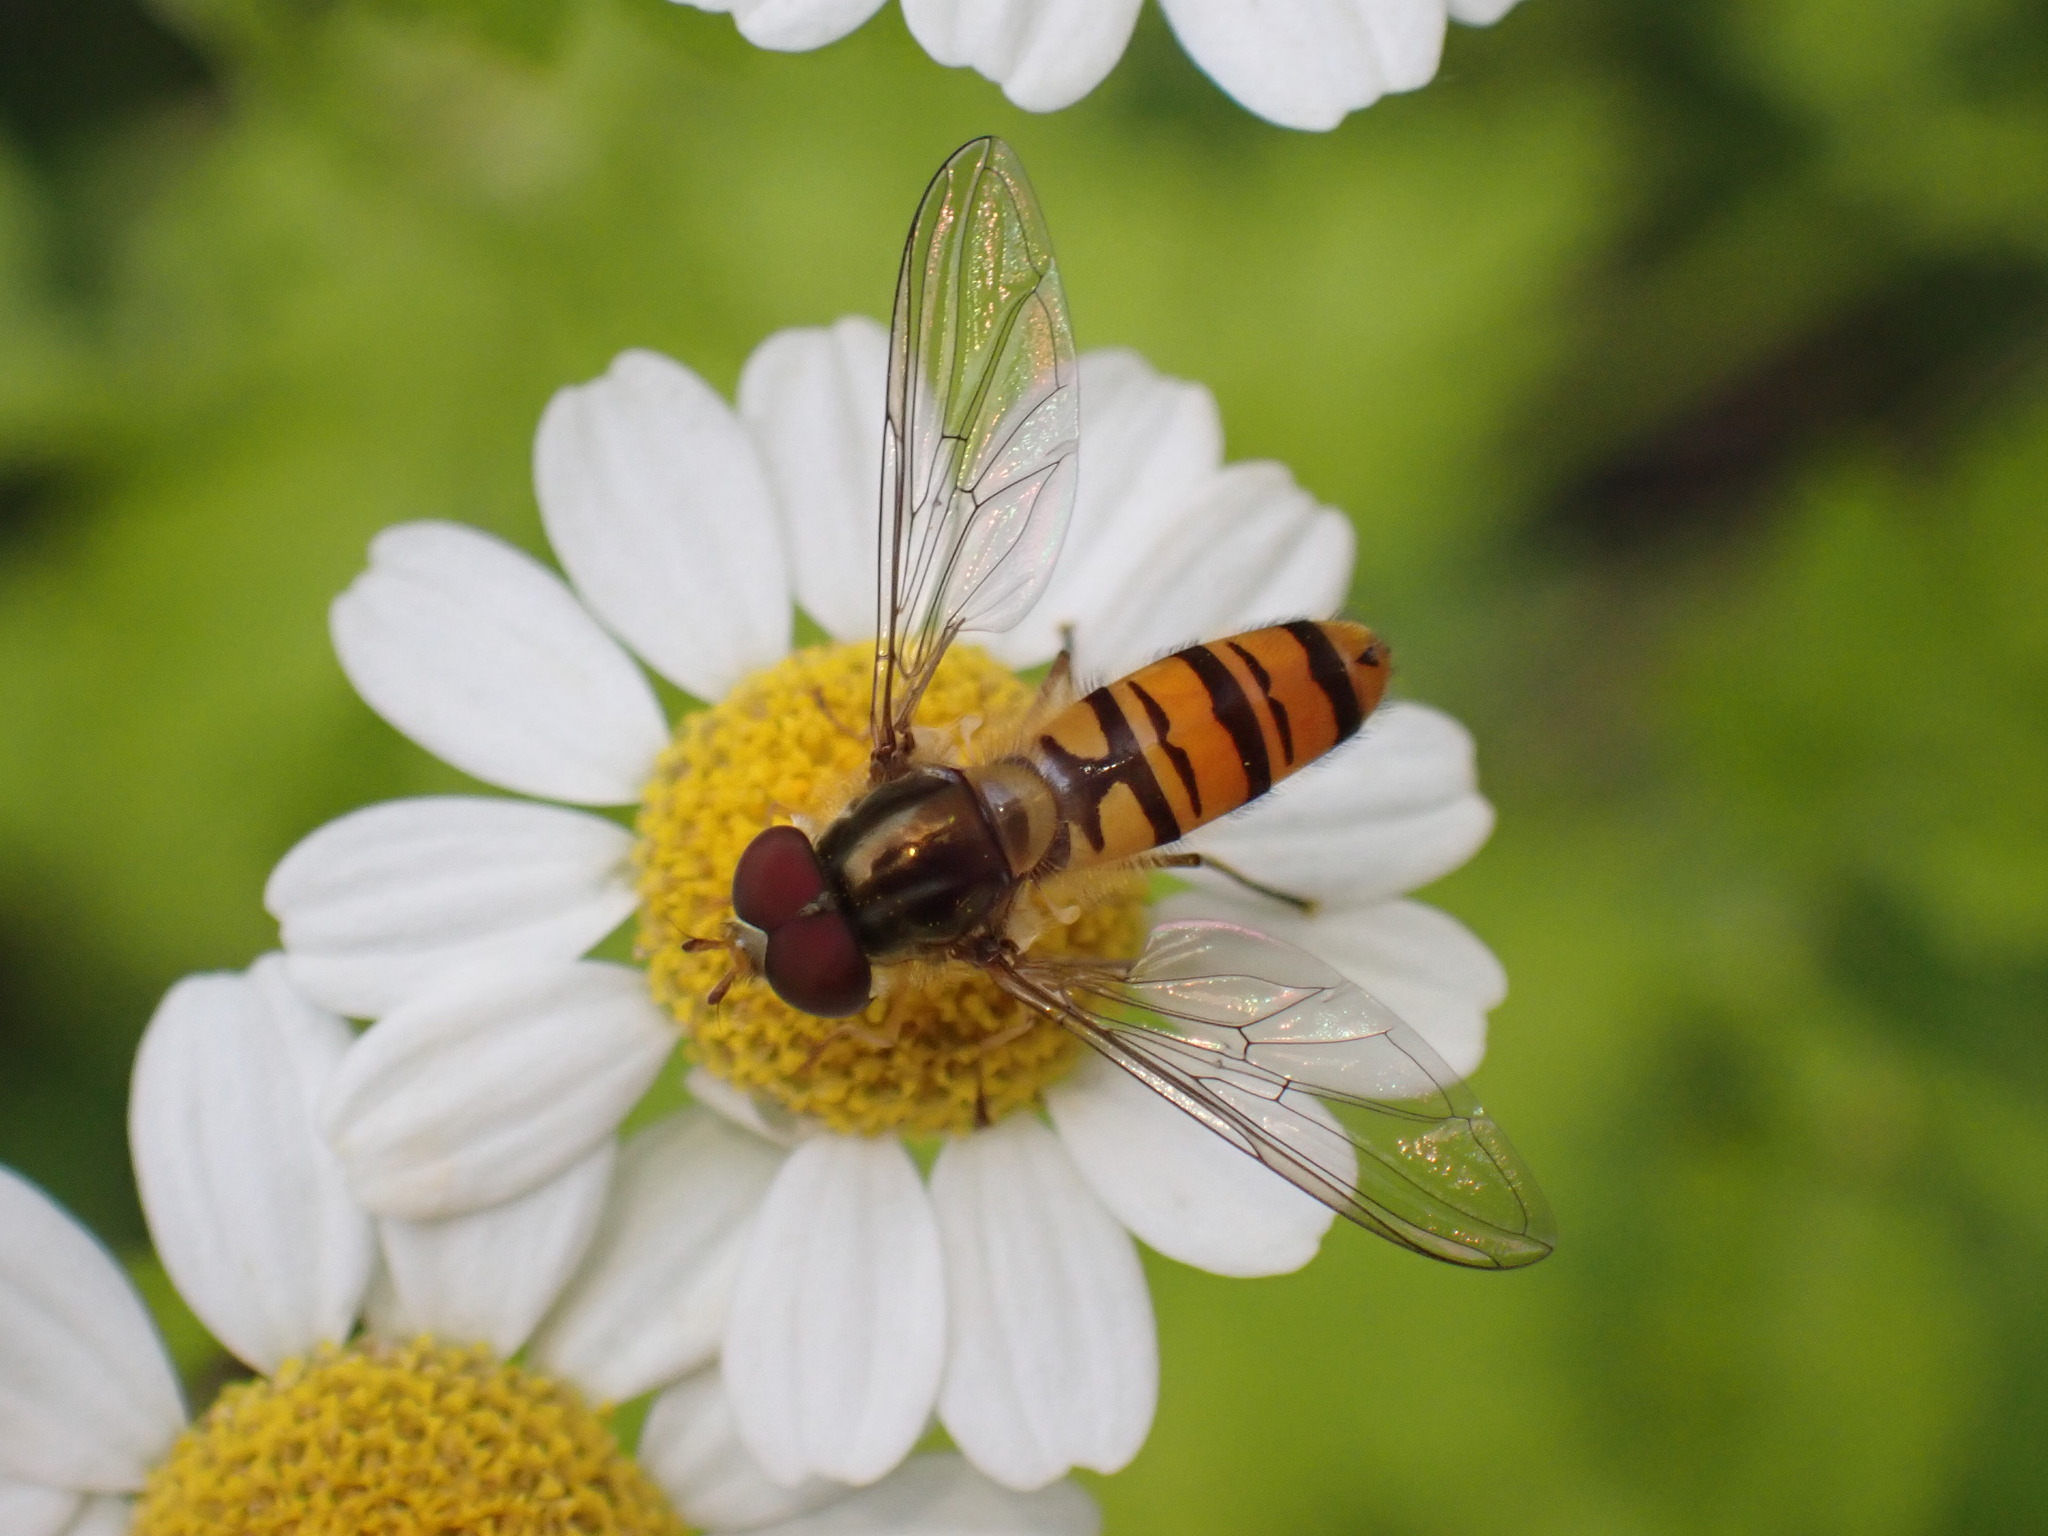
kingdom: Animalia
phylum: Arthropoda
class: Insecta
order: Diptera
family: Syrphidae
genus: Episyrphus
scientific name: Episyrphus balteatus
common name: Marmalade hoverfly
